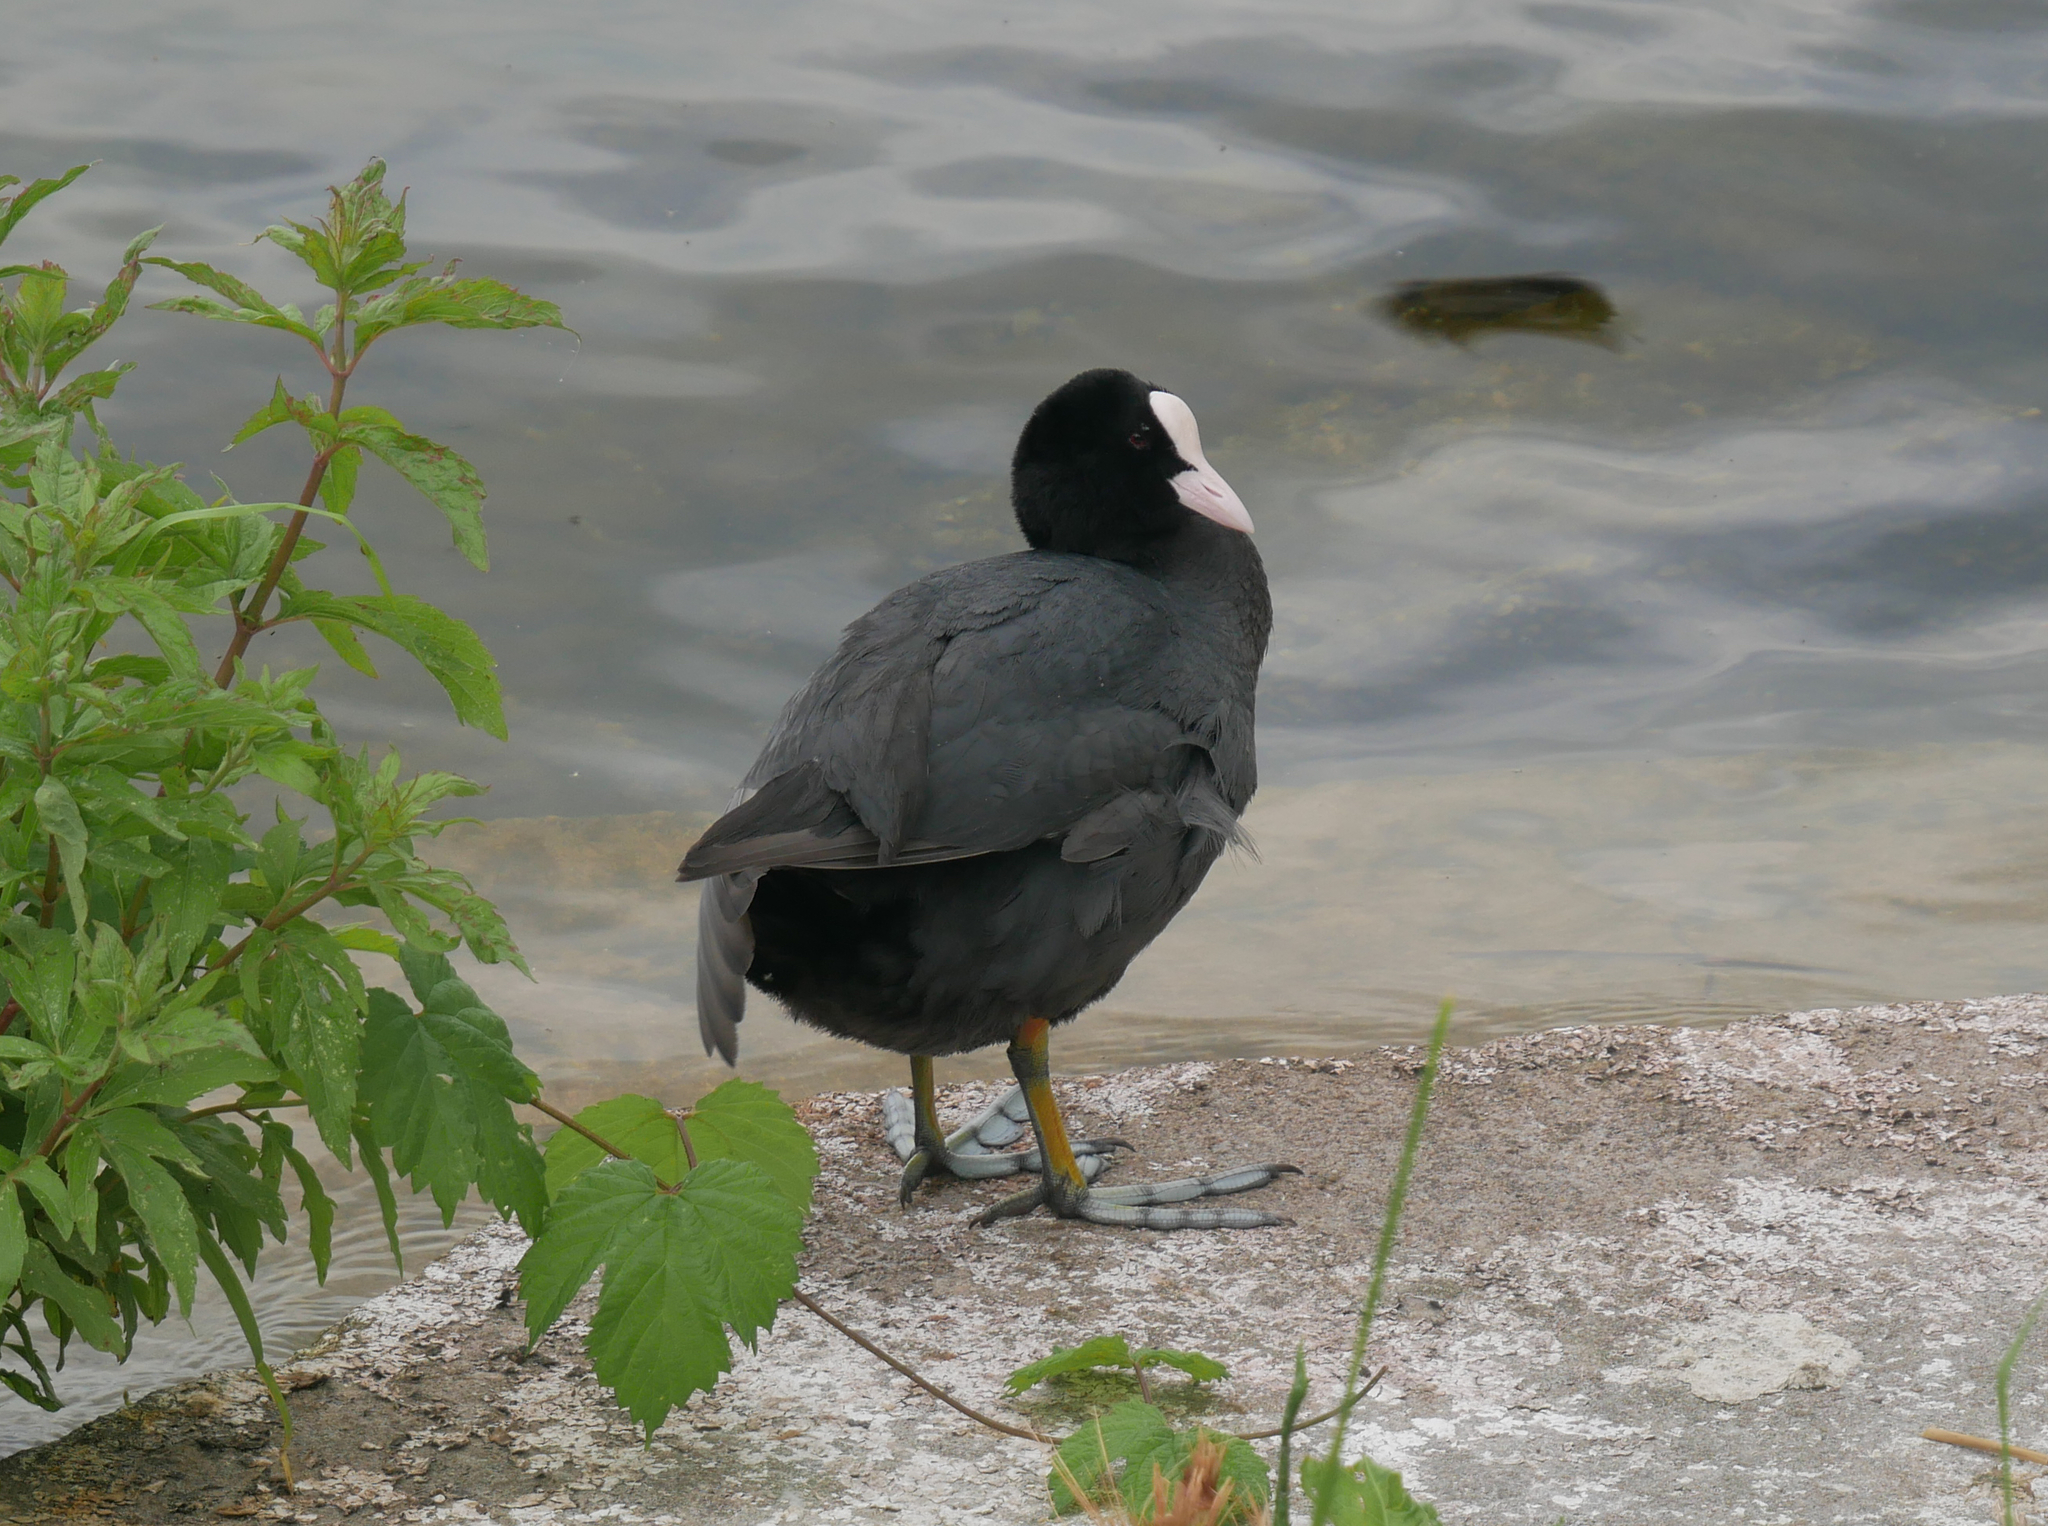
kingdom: Animalia
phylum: Chordata
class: Aves
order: Gruiformes
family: Rallidae
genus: Fulica
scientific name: Fulica atra
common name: Eurasian coot
